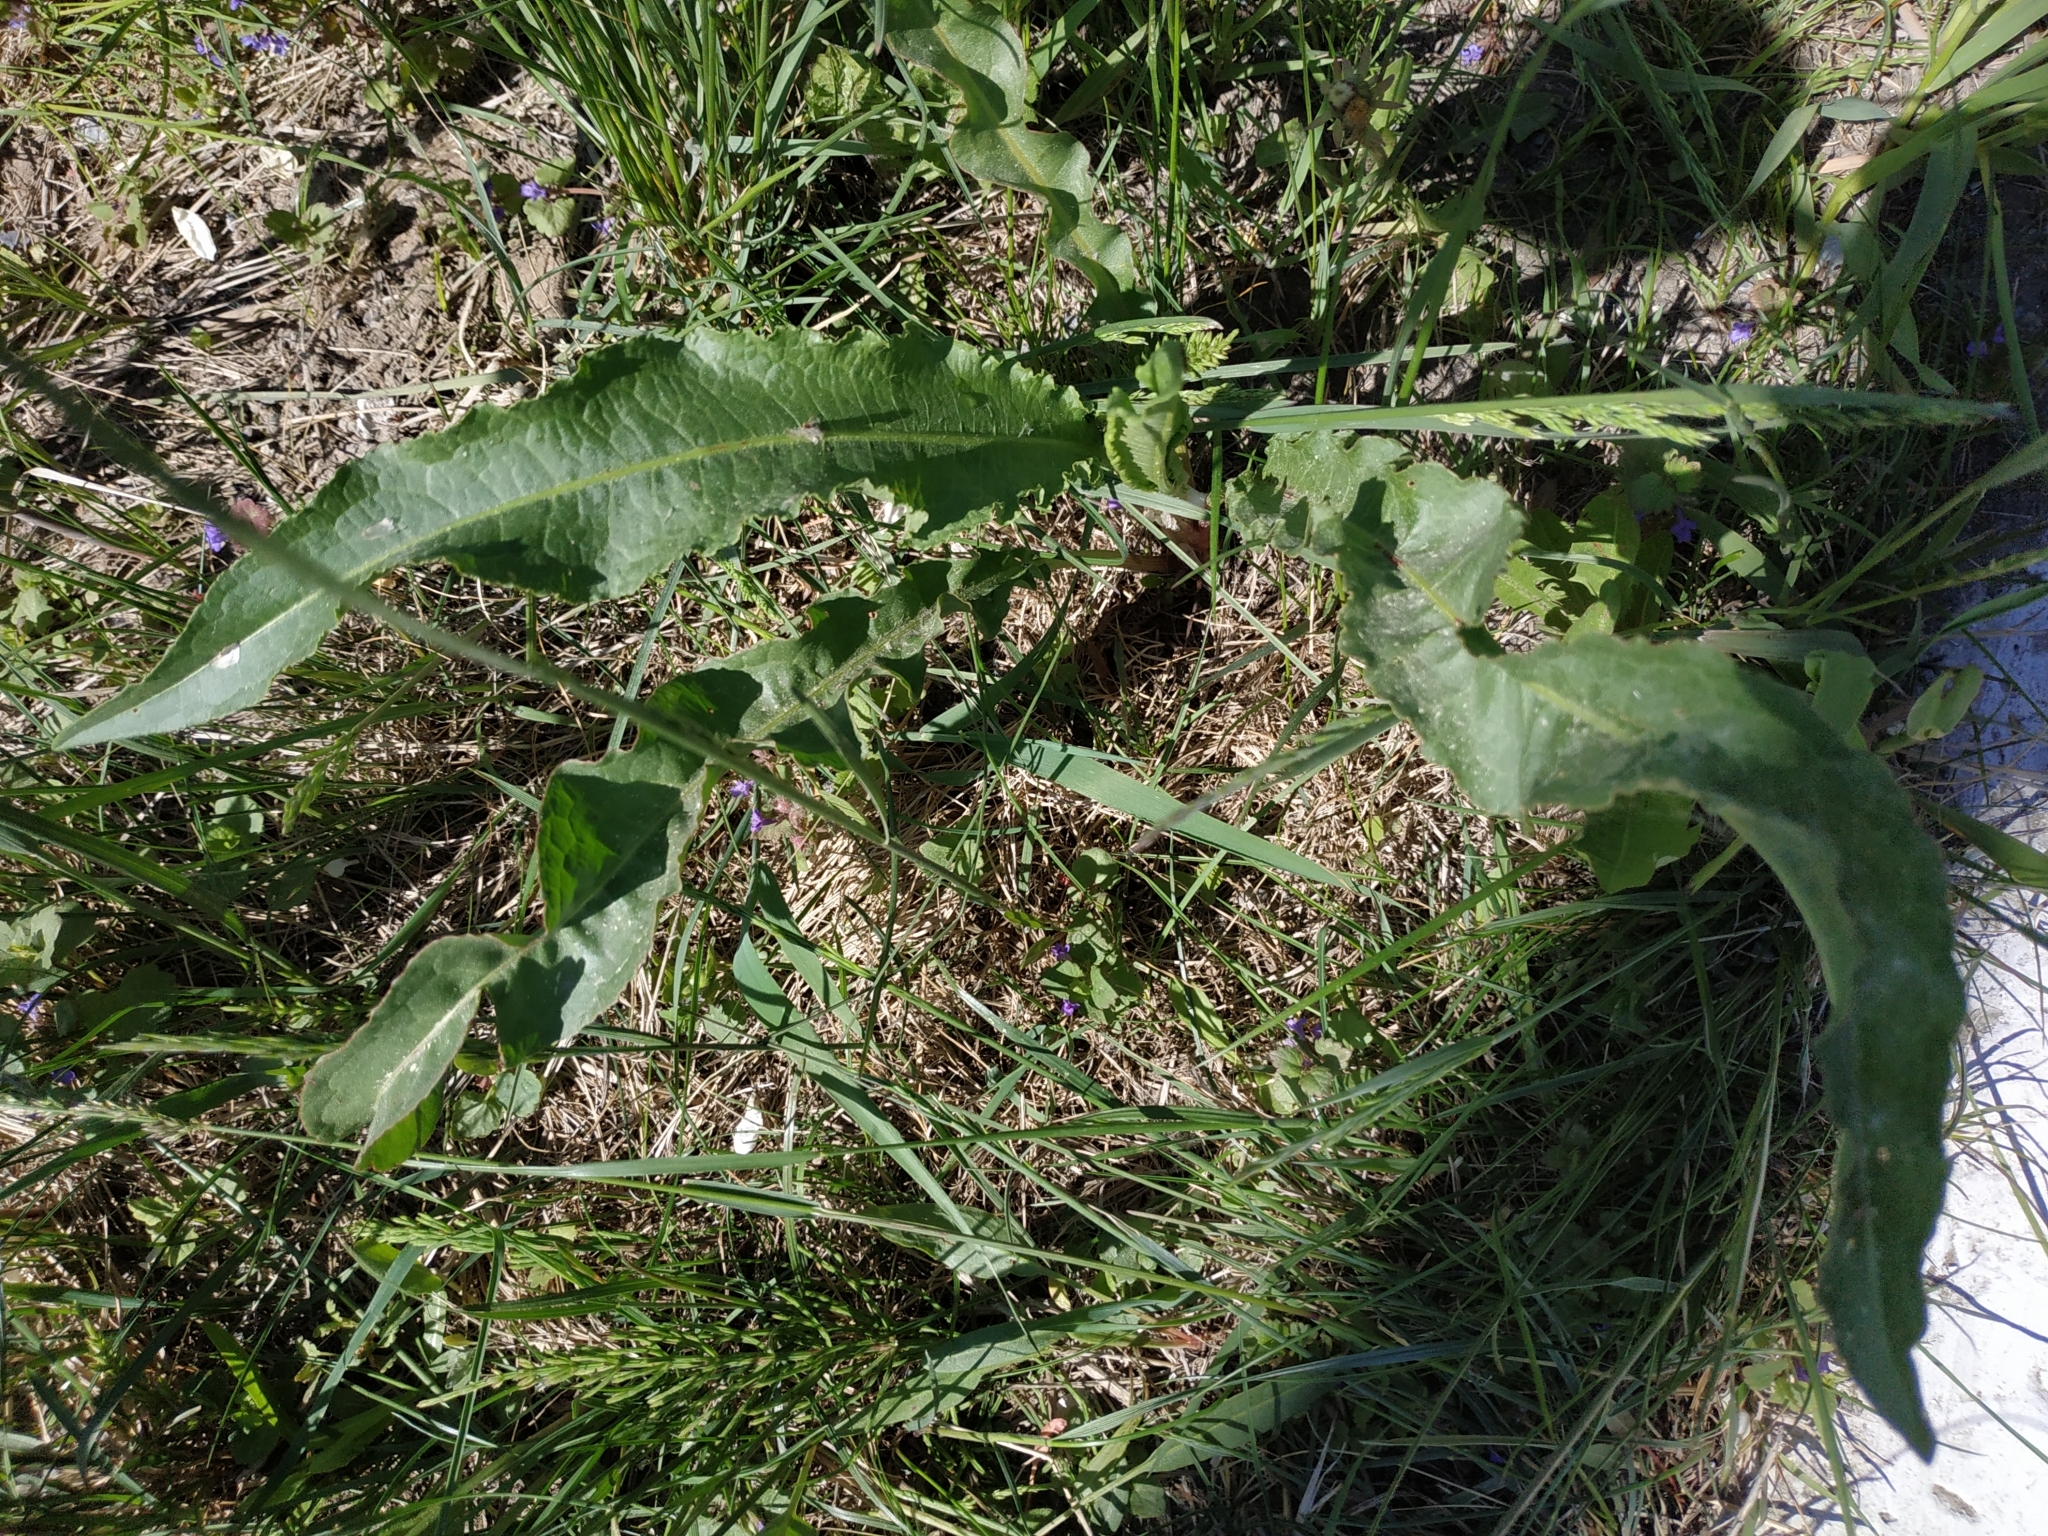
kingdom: Plantae
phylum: Tracheophyta
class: Magnoliopsida
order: Caryophyllales
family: Polygonaceae
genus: Rumex
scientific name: Rumex pseudonatronatus
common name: Field dock
